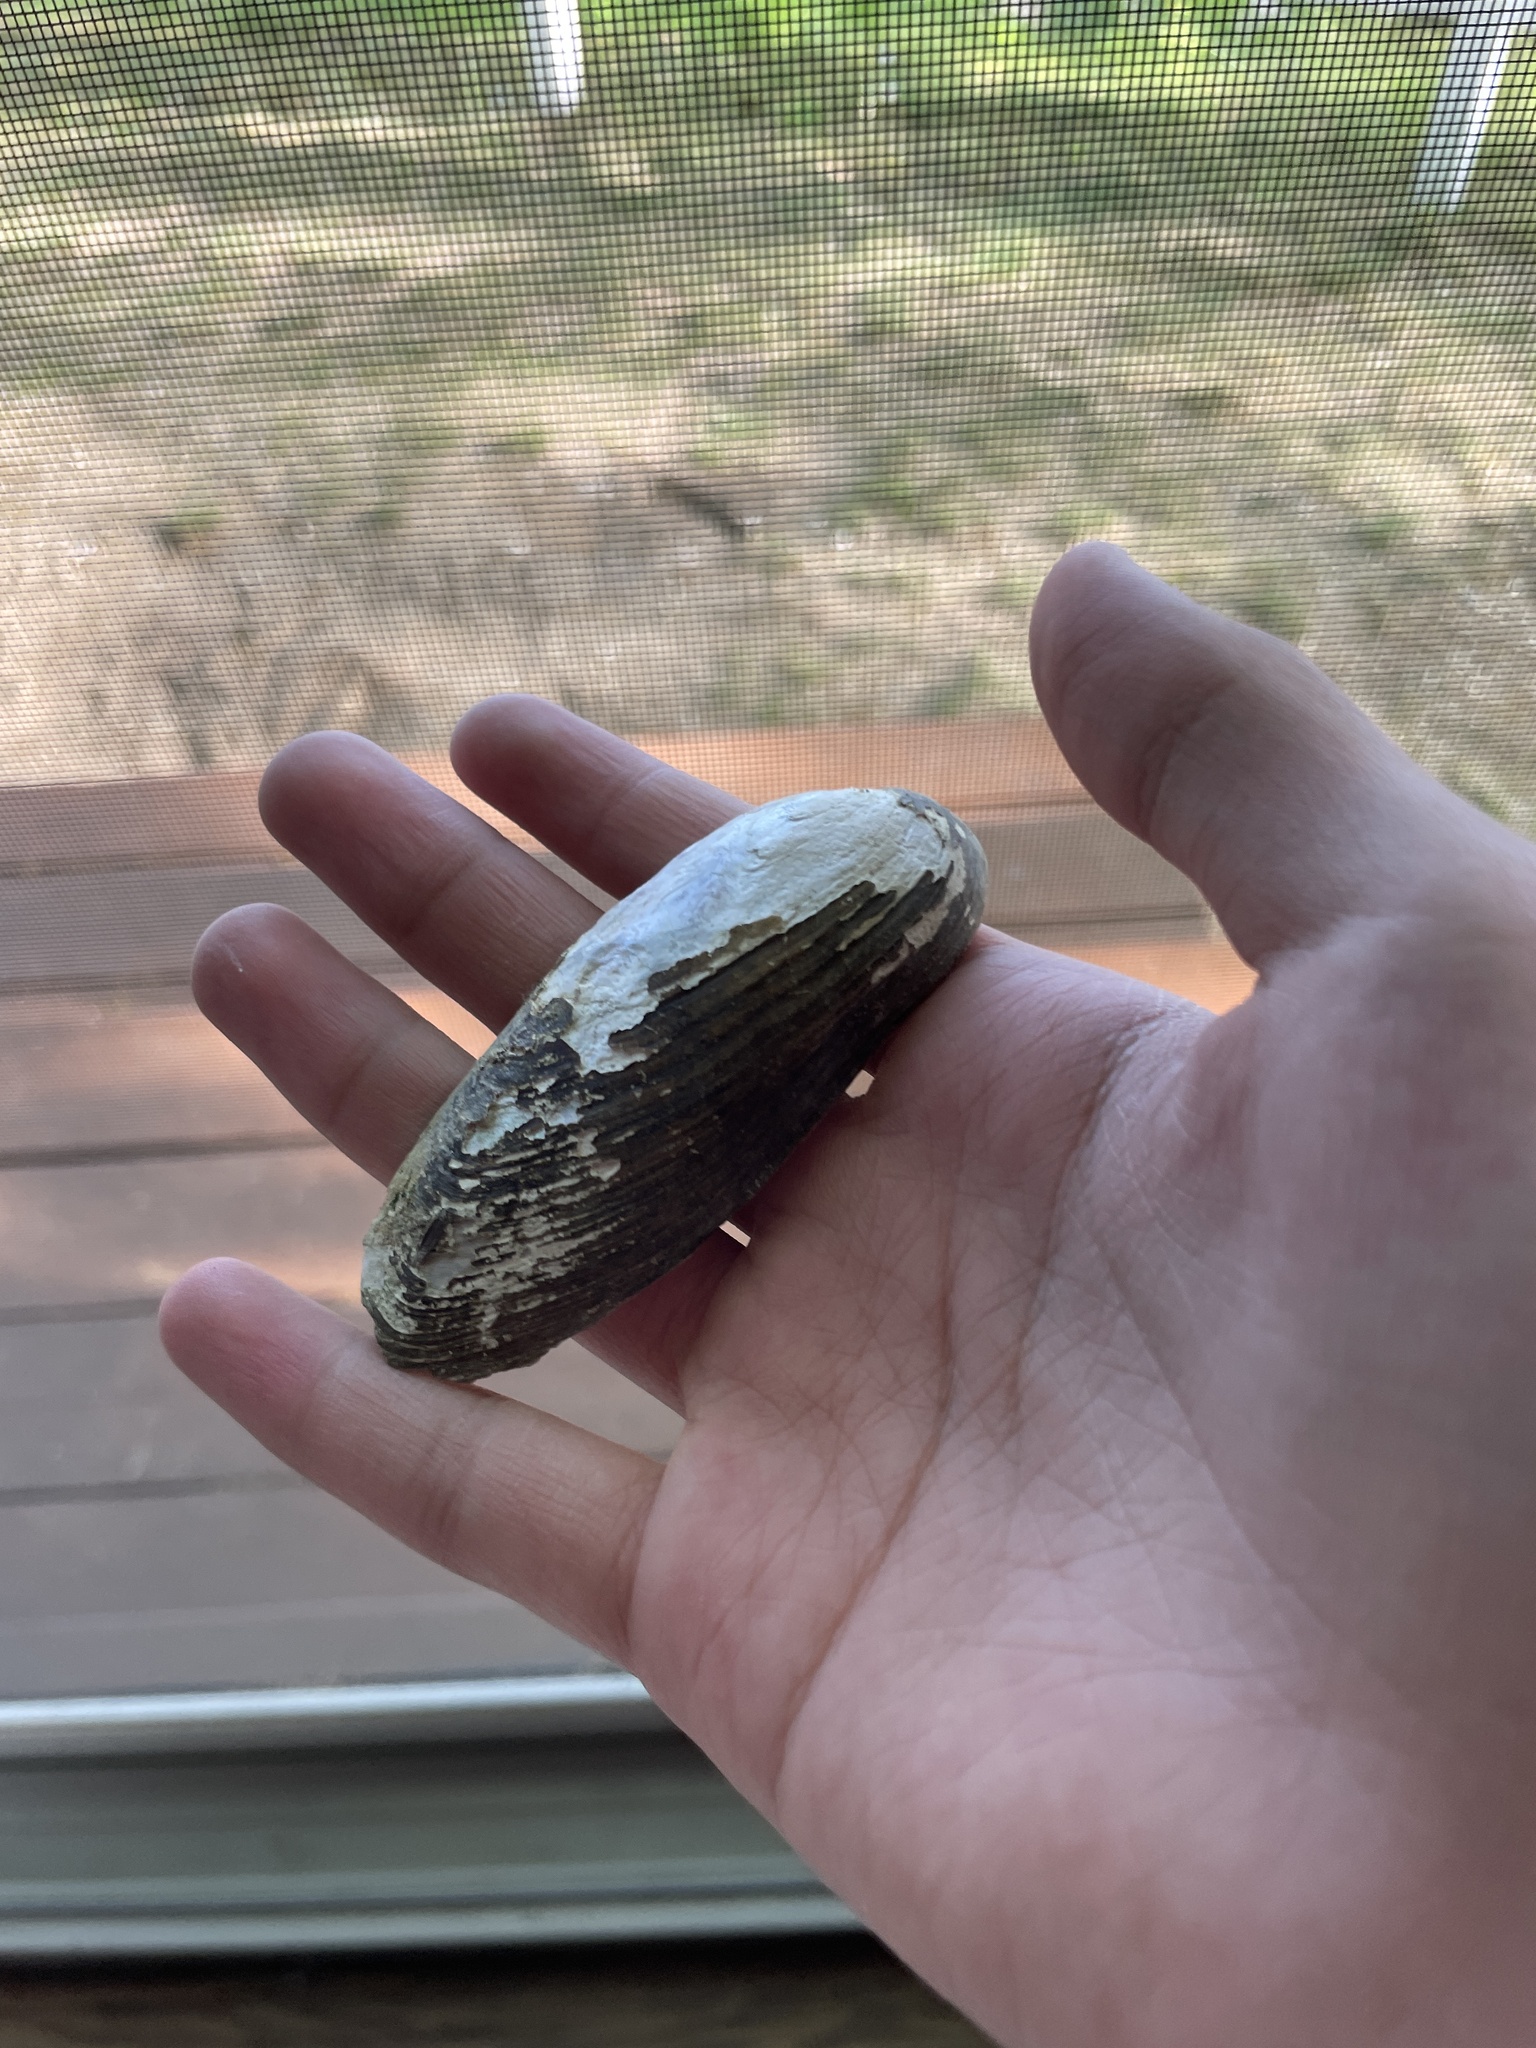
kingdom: Animalia
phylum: Mollusca
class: Bivalvia
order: Unionida
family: Unionidae
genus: Eurynia
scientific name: Eurynia dilatata
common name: Spike
